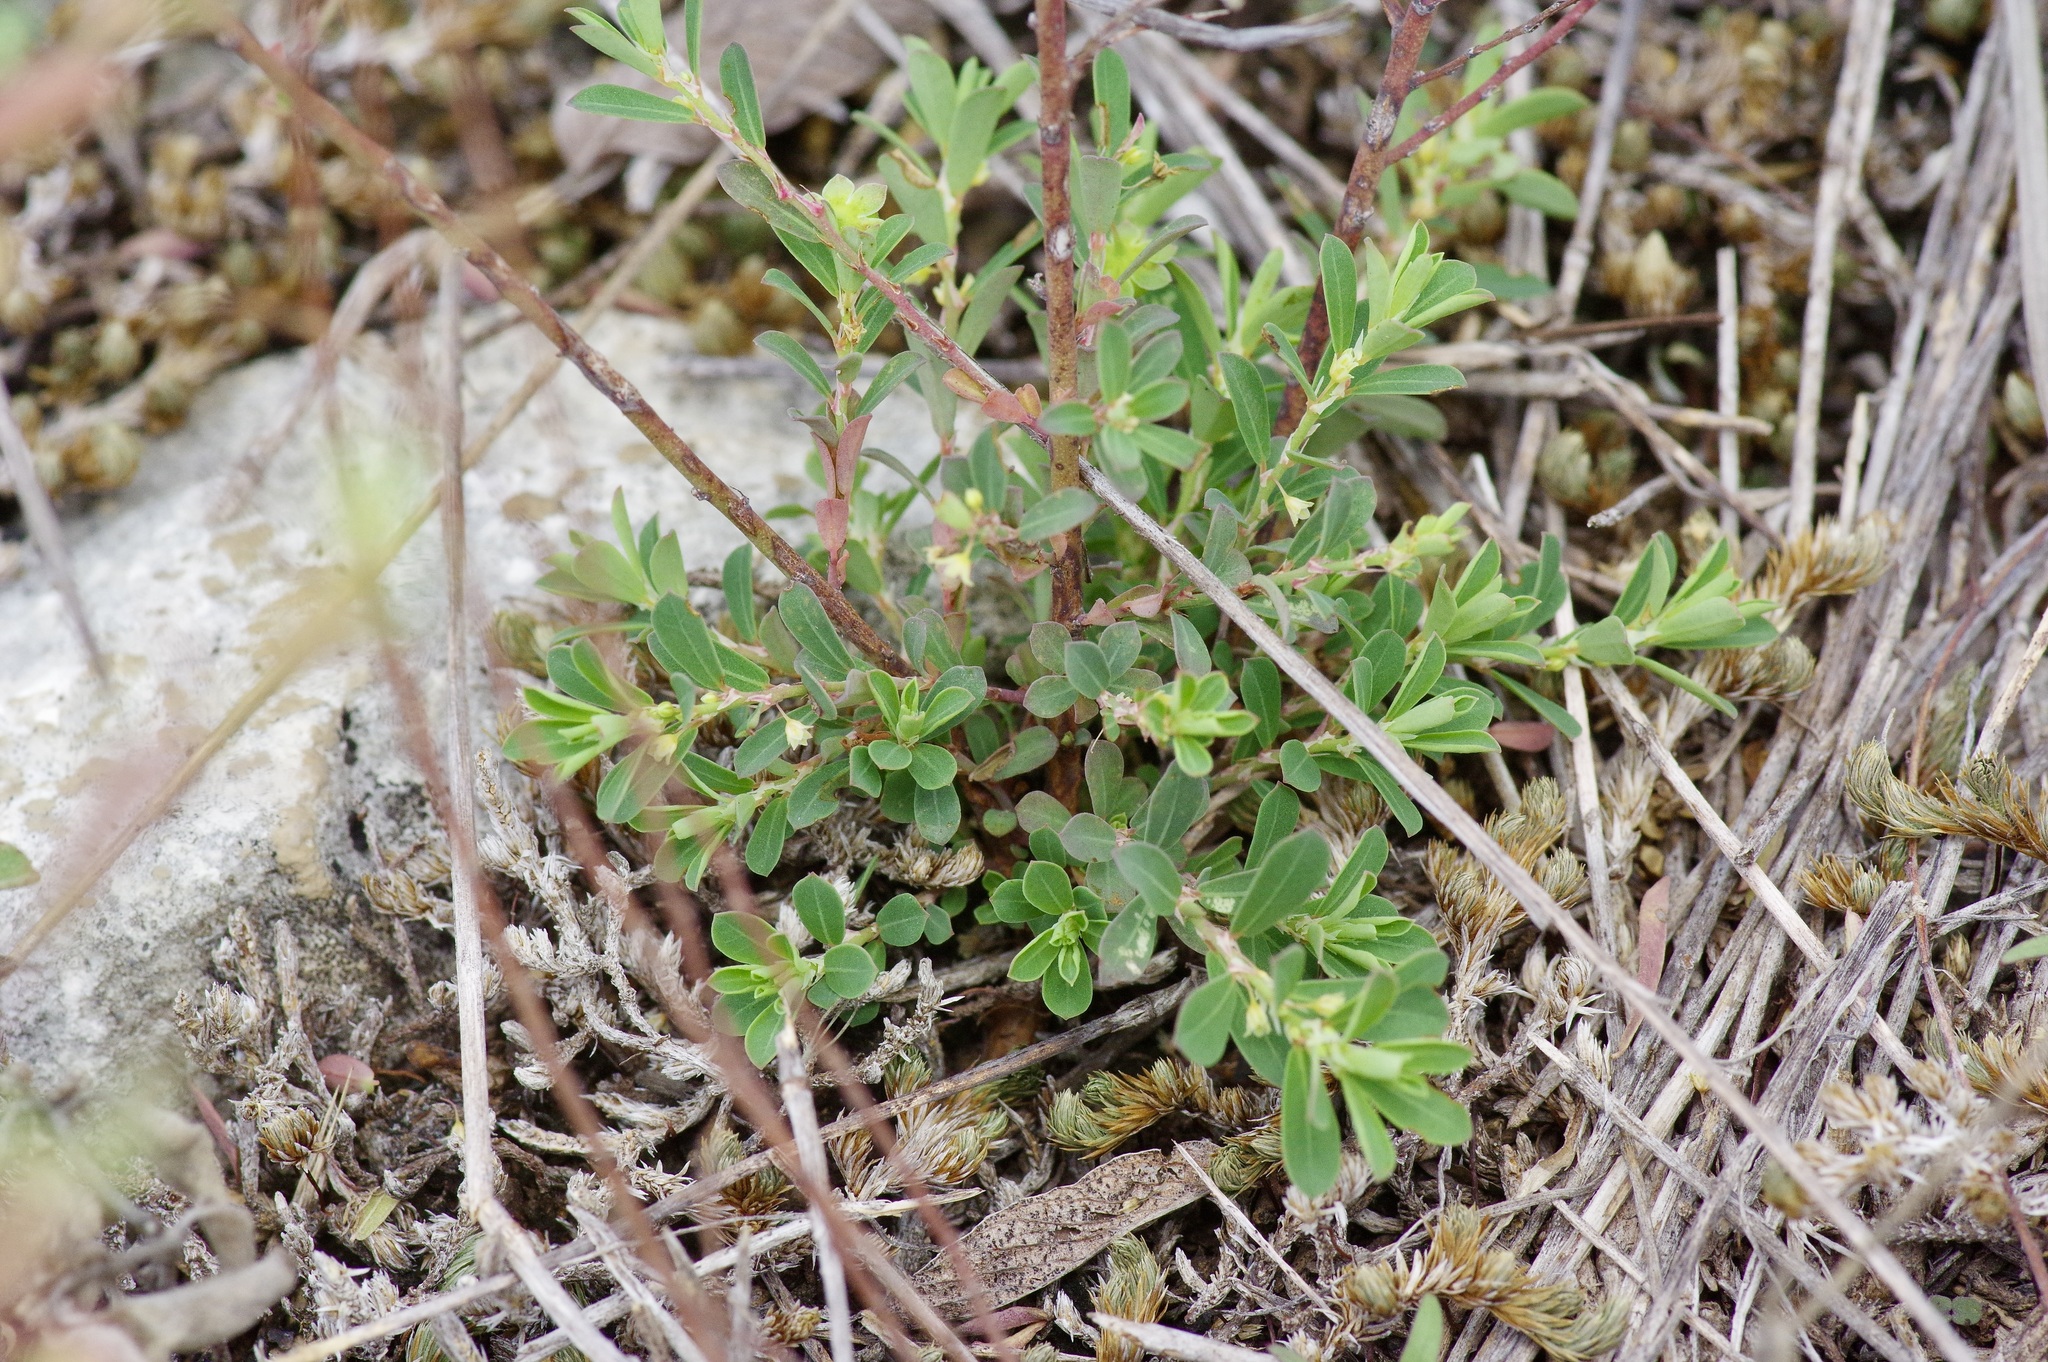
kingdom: Plantae
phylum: Tracheophyta
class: Magnoliopsida
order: Malpighiales
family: Phyllanthaceae
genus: Phyllanthus
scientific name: Phyllanthus polygonoides
